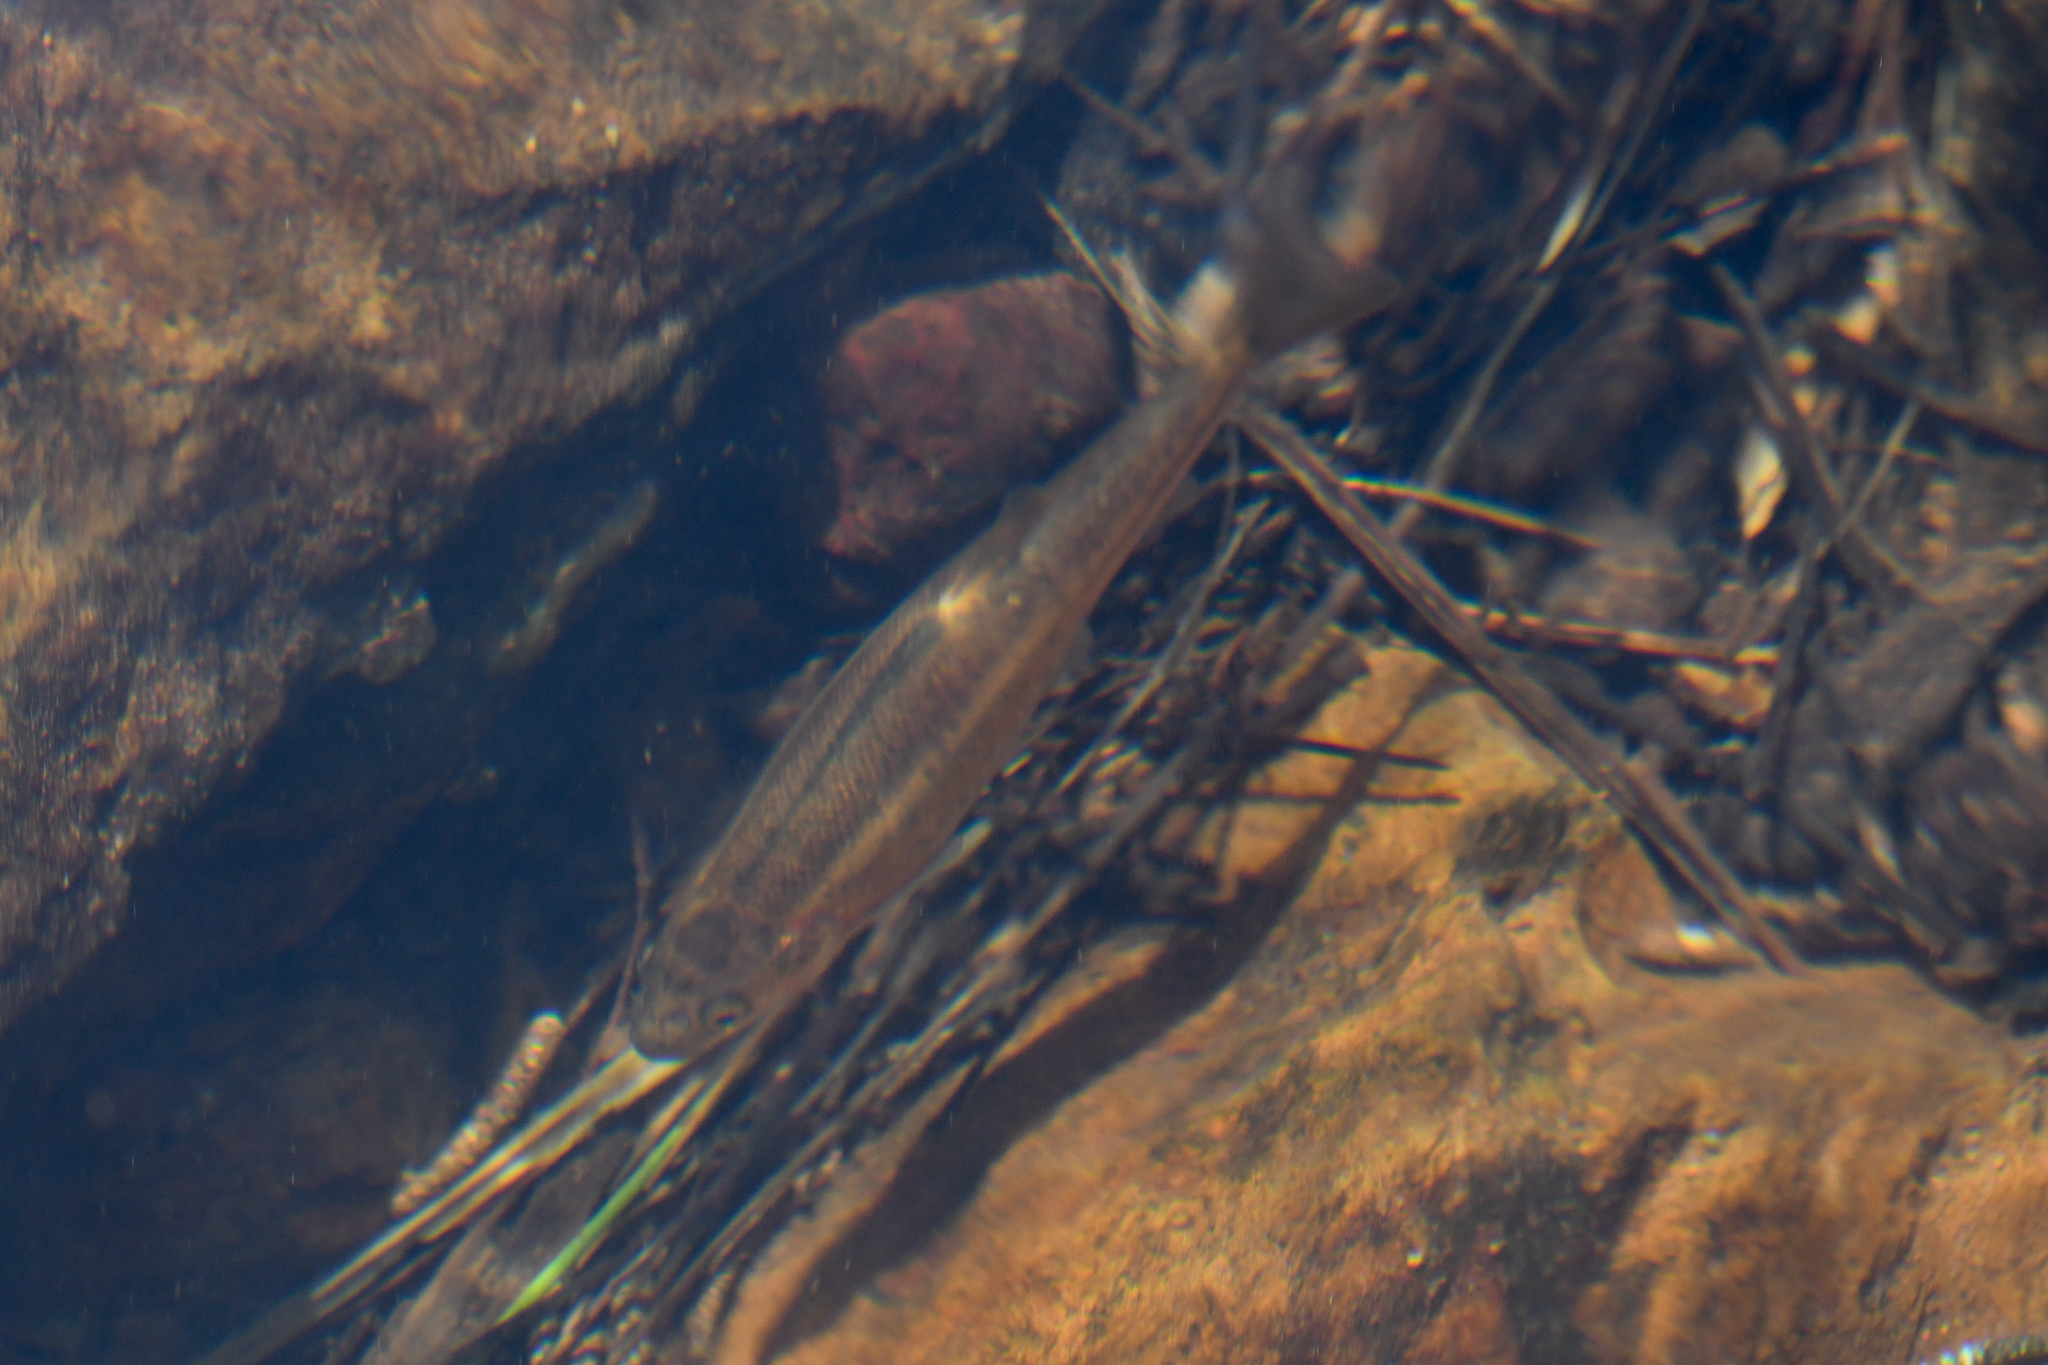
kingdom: Animalia
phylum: Chordata
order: Cypriniformes
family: Cyprinidae
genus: Hesperoleucus
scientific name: Hesperoleucus symmetricus
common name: California roach
